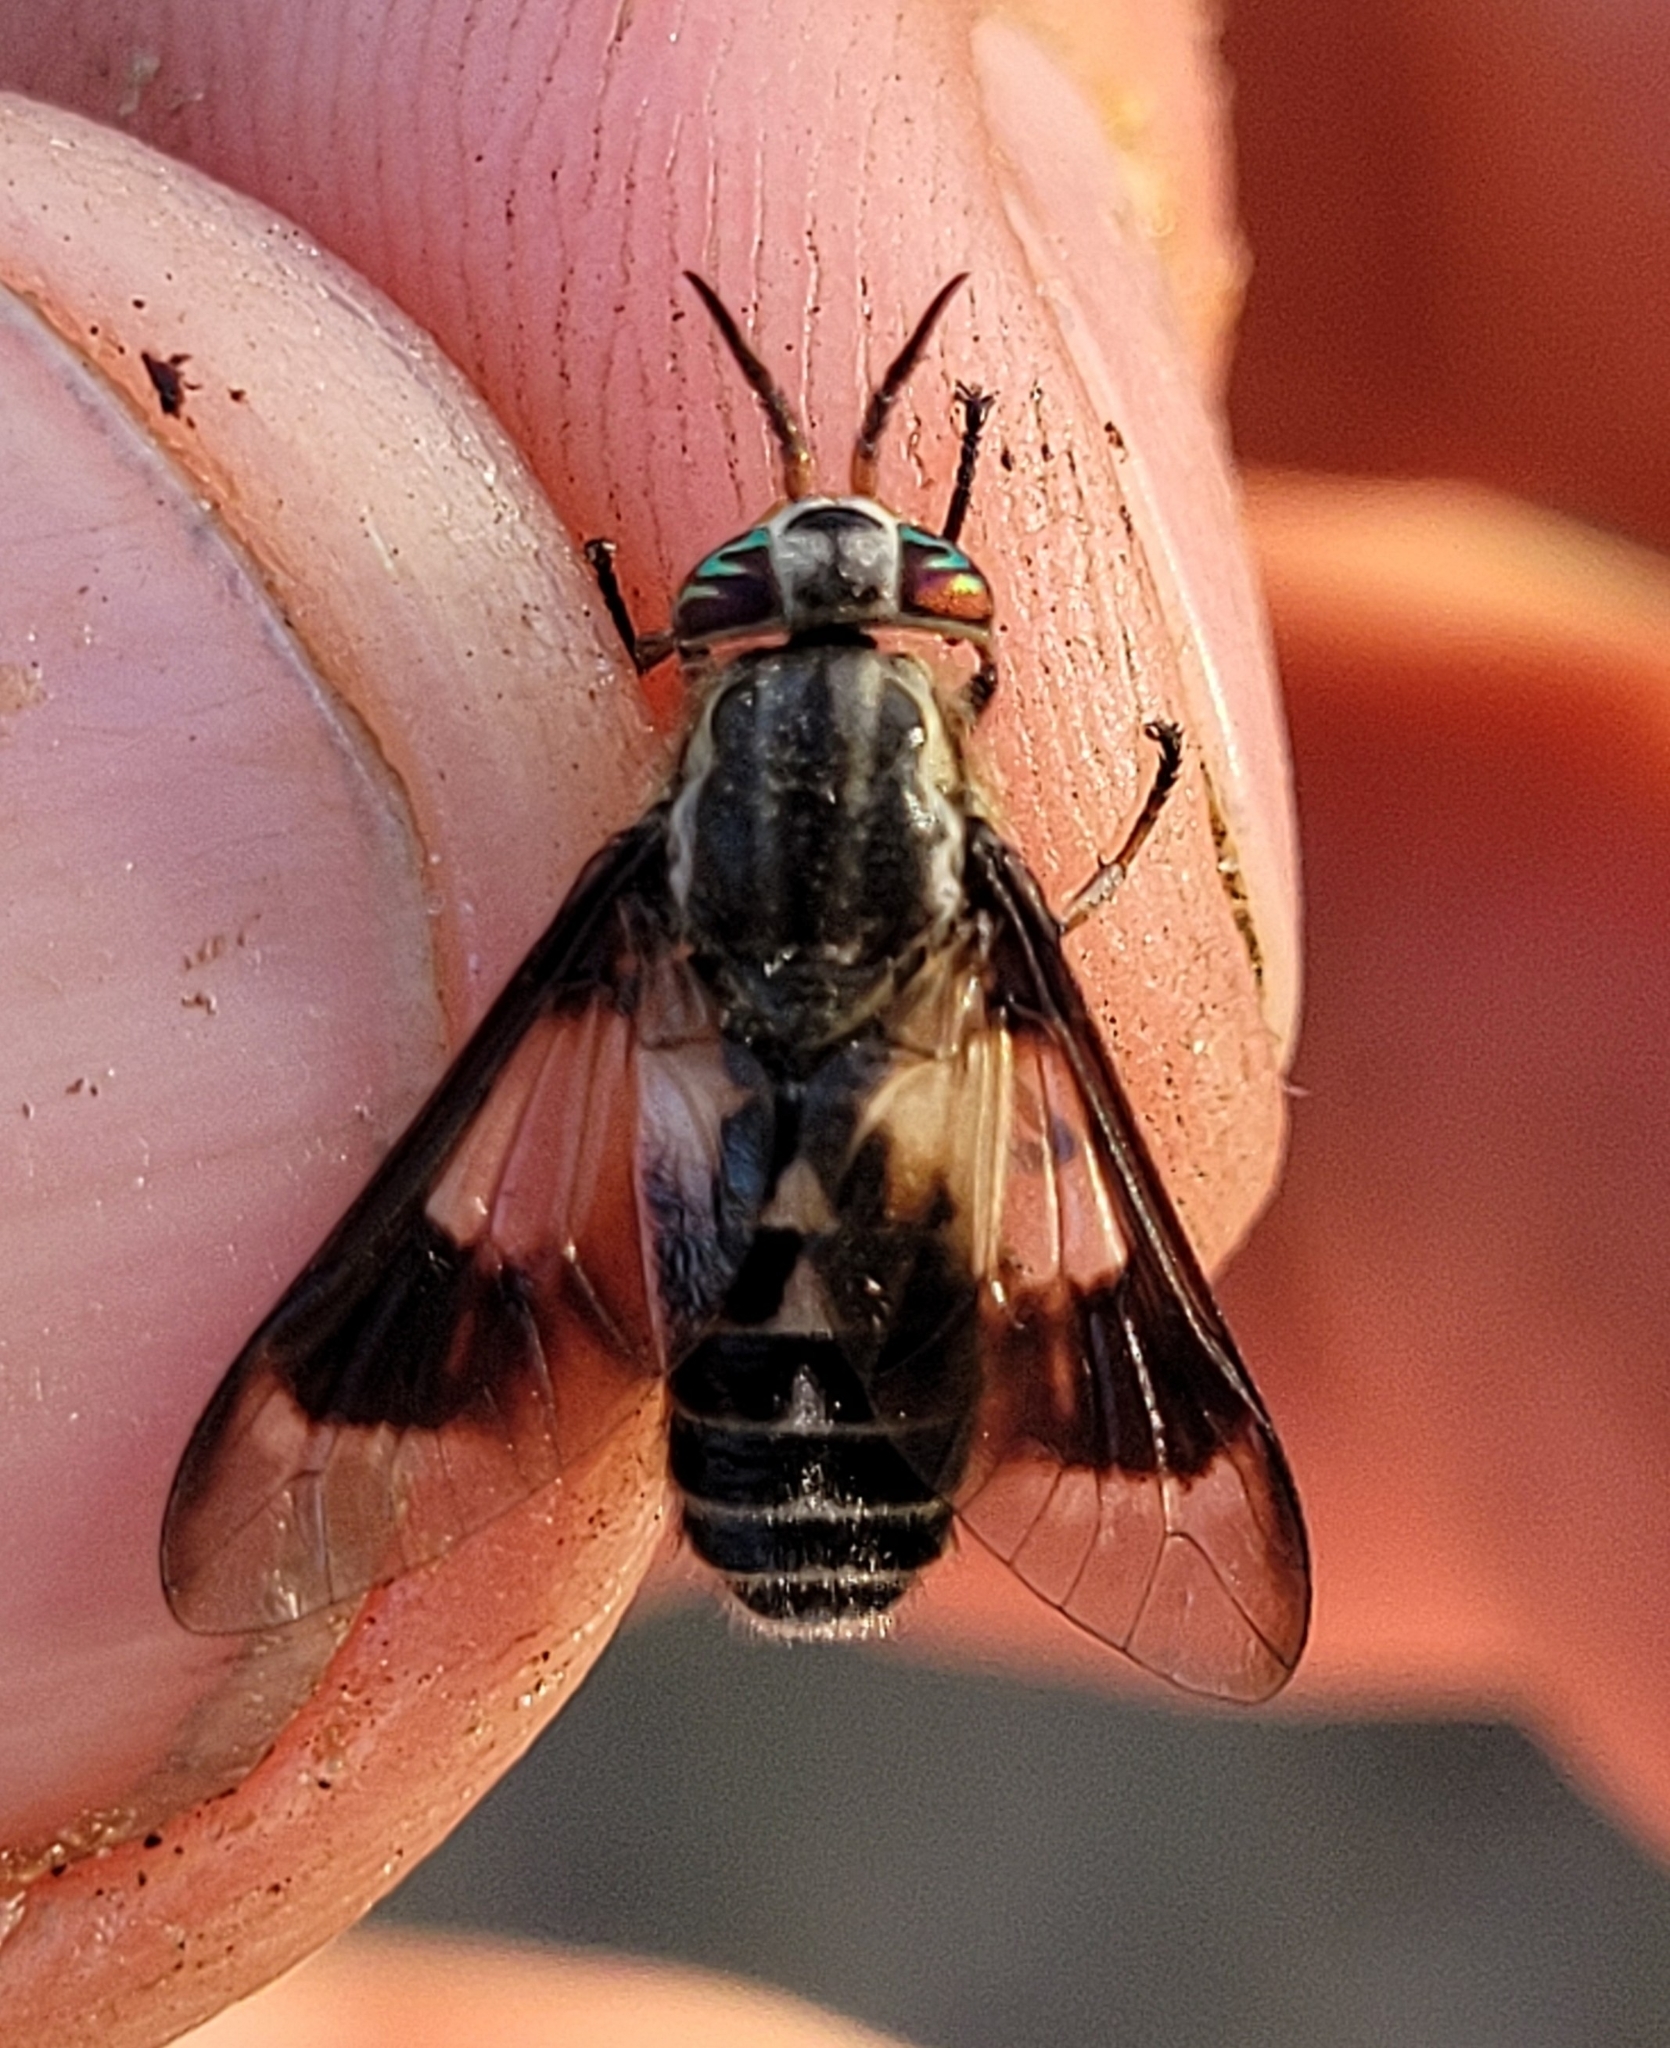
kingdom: Animalia
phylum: Arthropoda
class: Insecta
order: Diptera
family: Tabanidae
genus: Chrysops
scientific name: Chrysops aestuans
